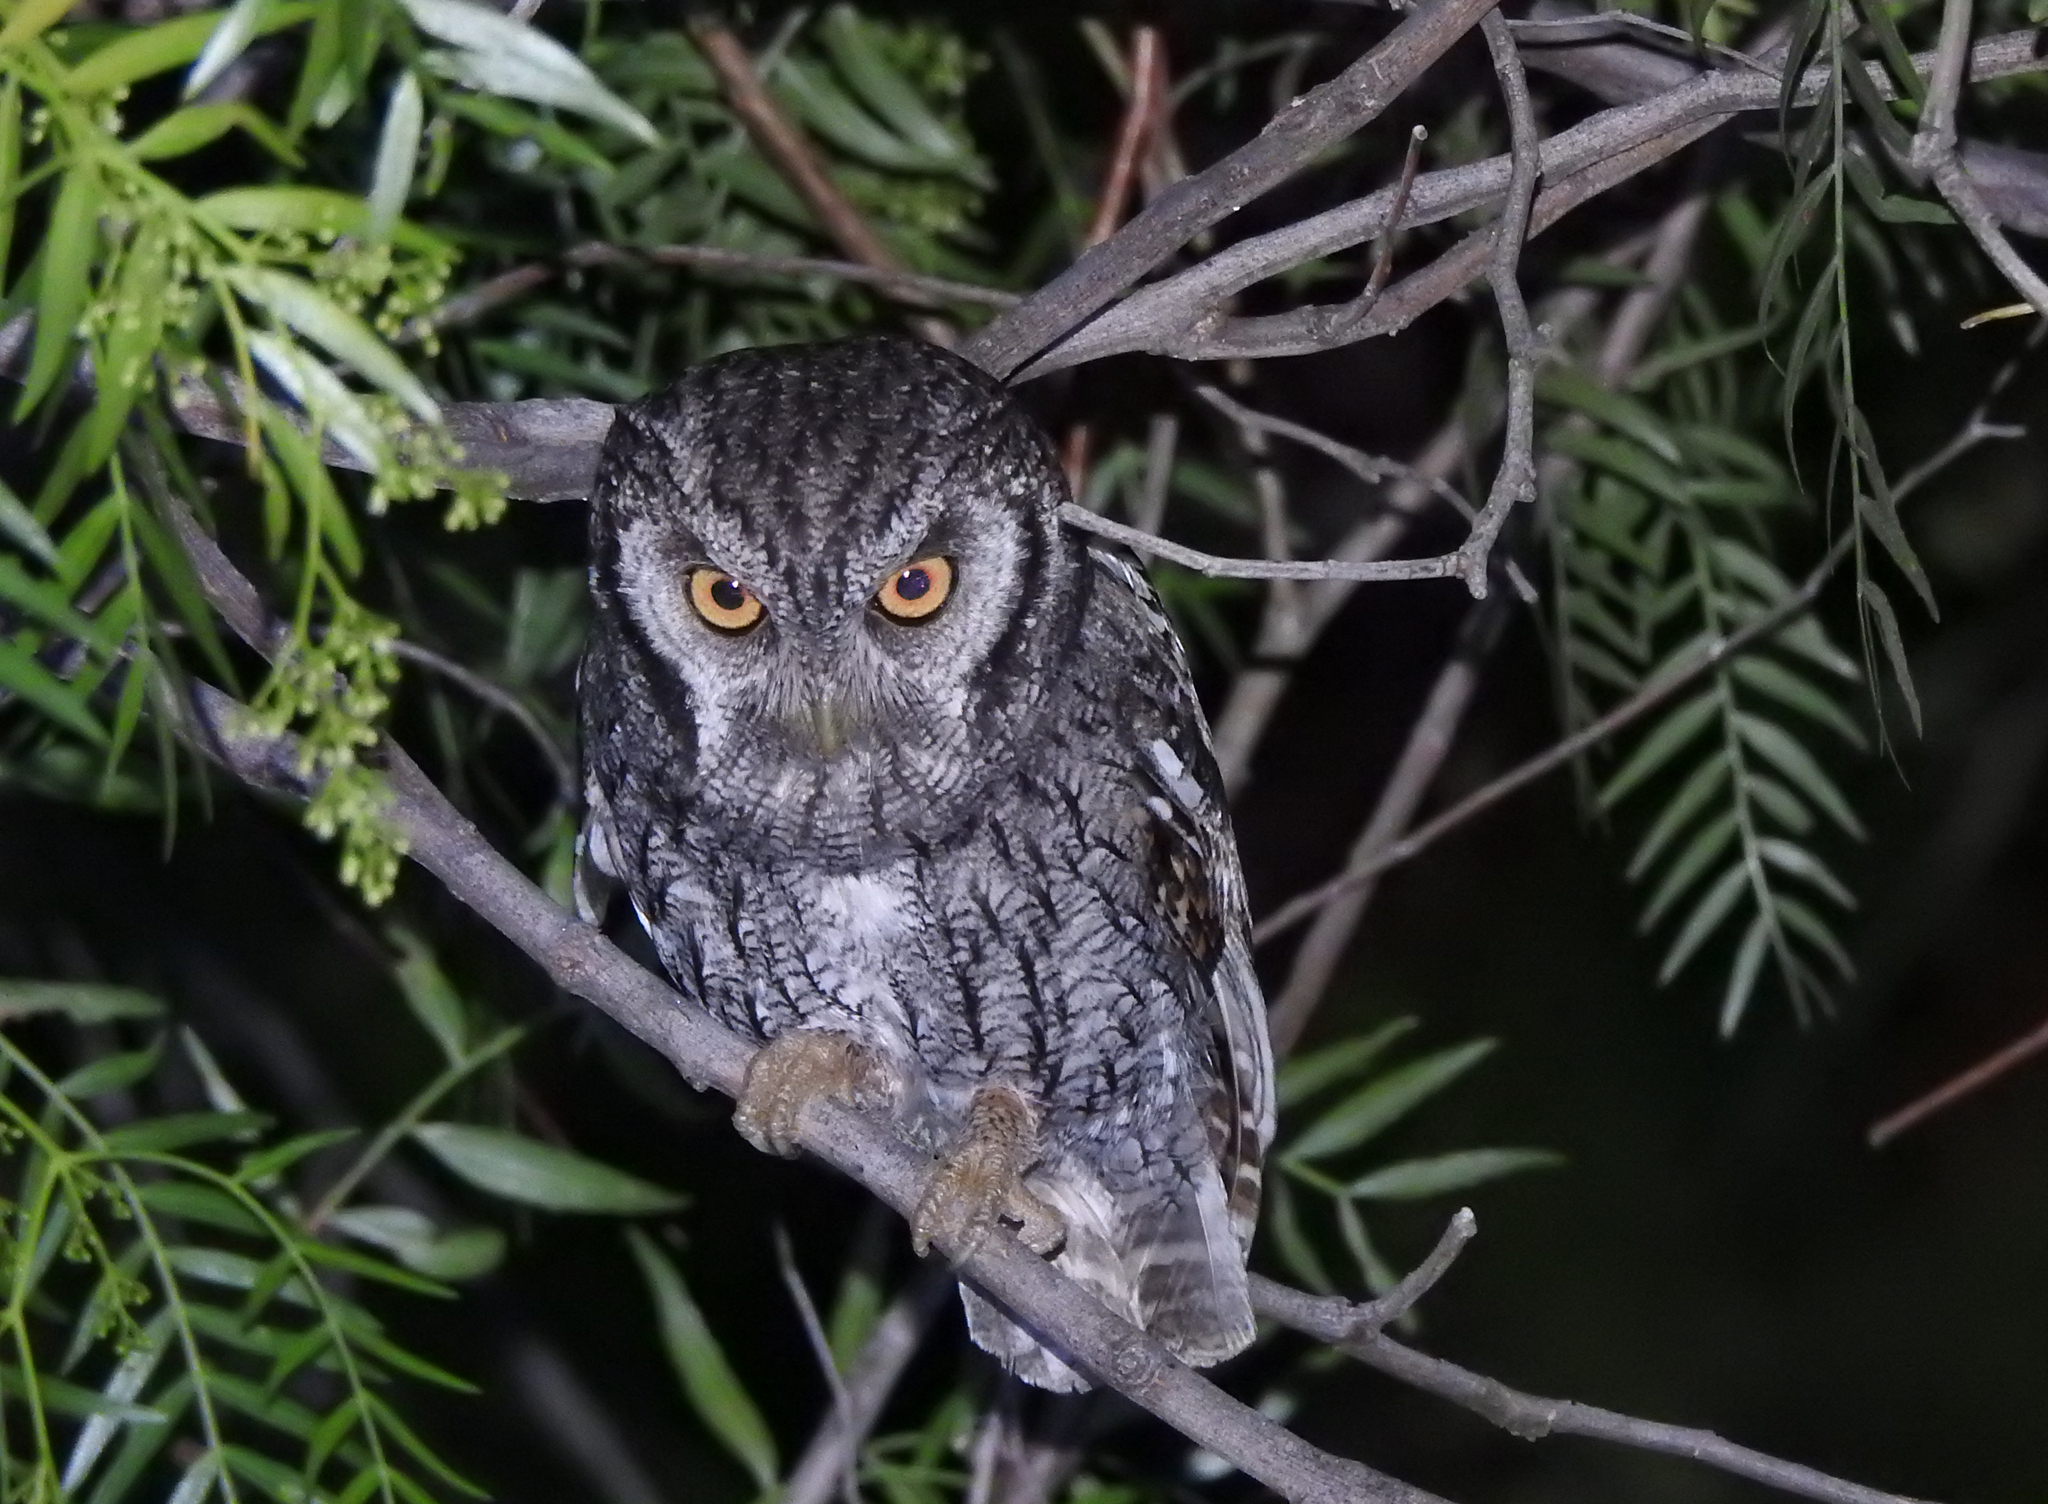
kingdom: Animalia
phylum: Chordata
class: Aves
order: Strigiformes
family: Strigidae
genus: Megascops
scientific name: Megascops choliba
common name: Tropical screech-owl
